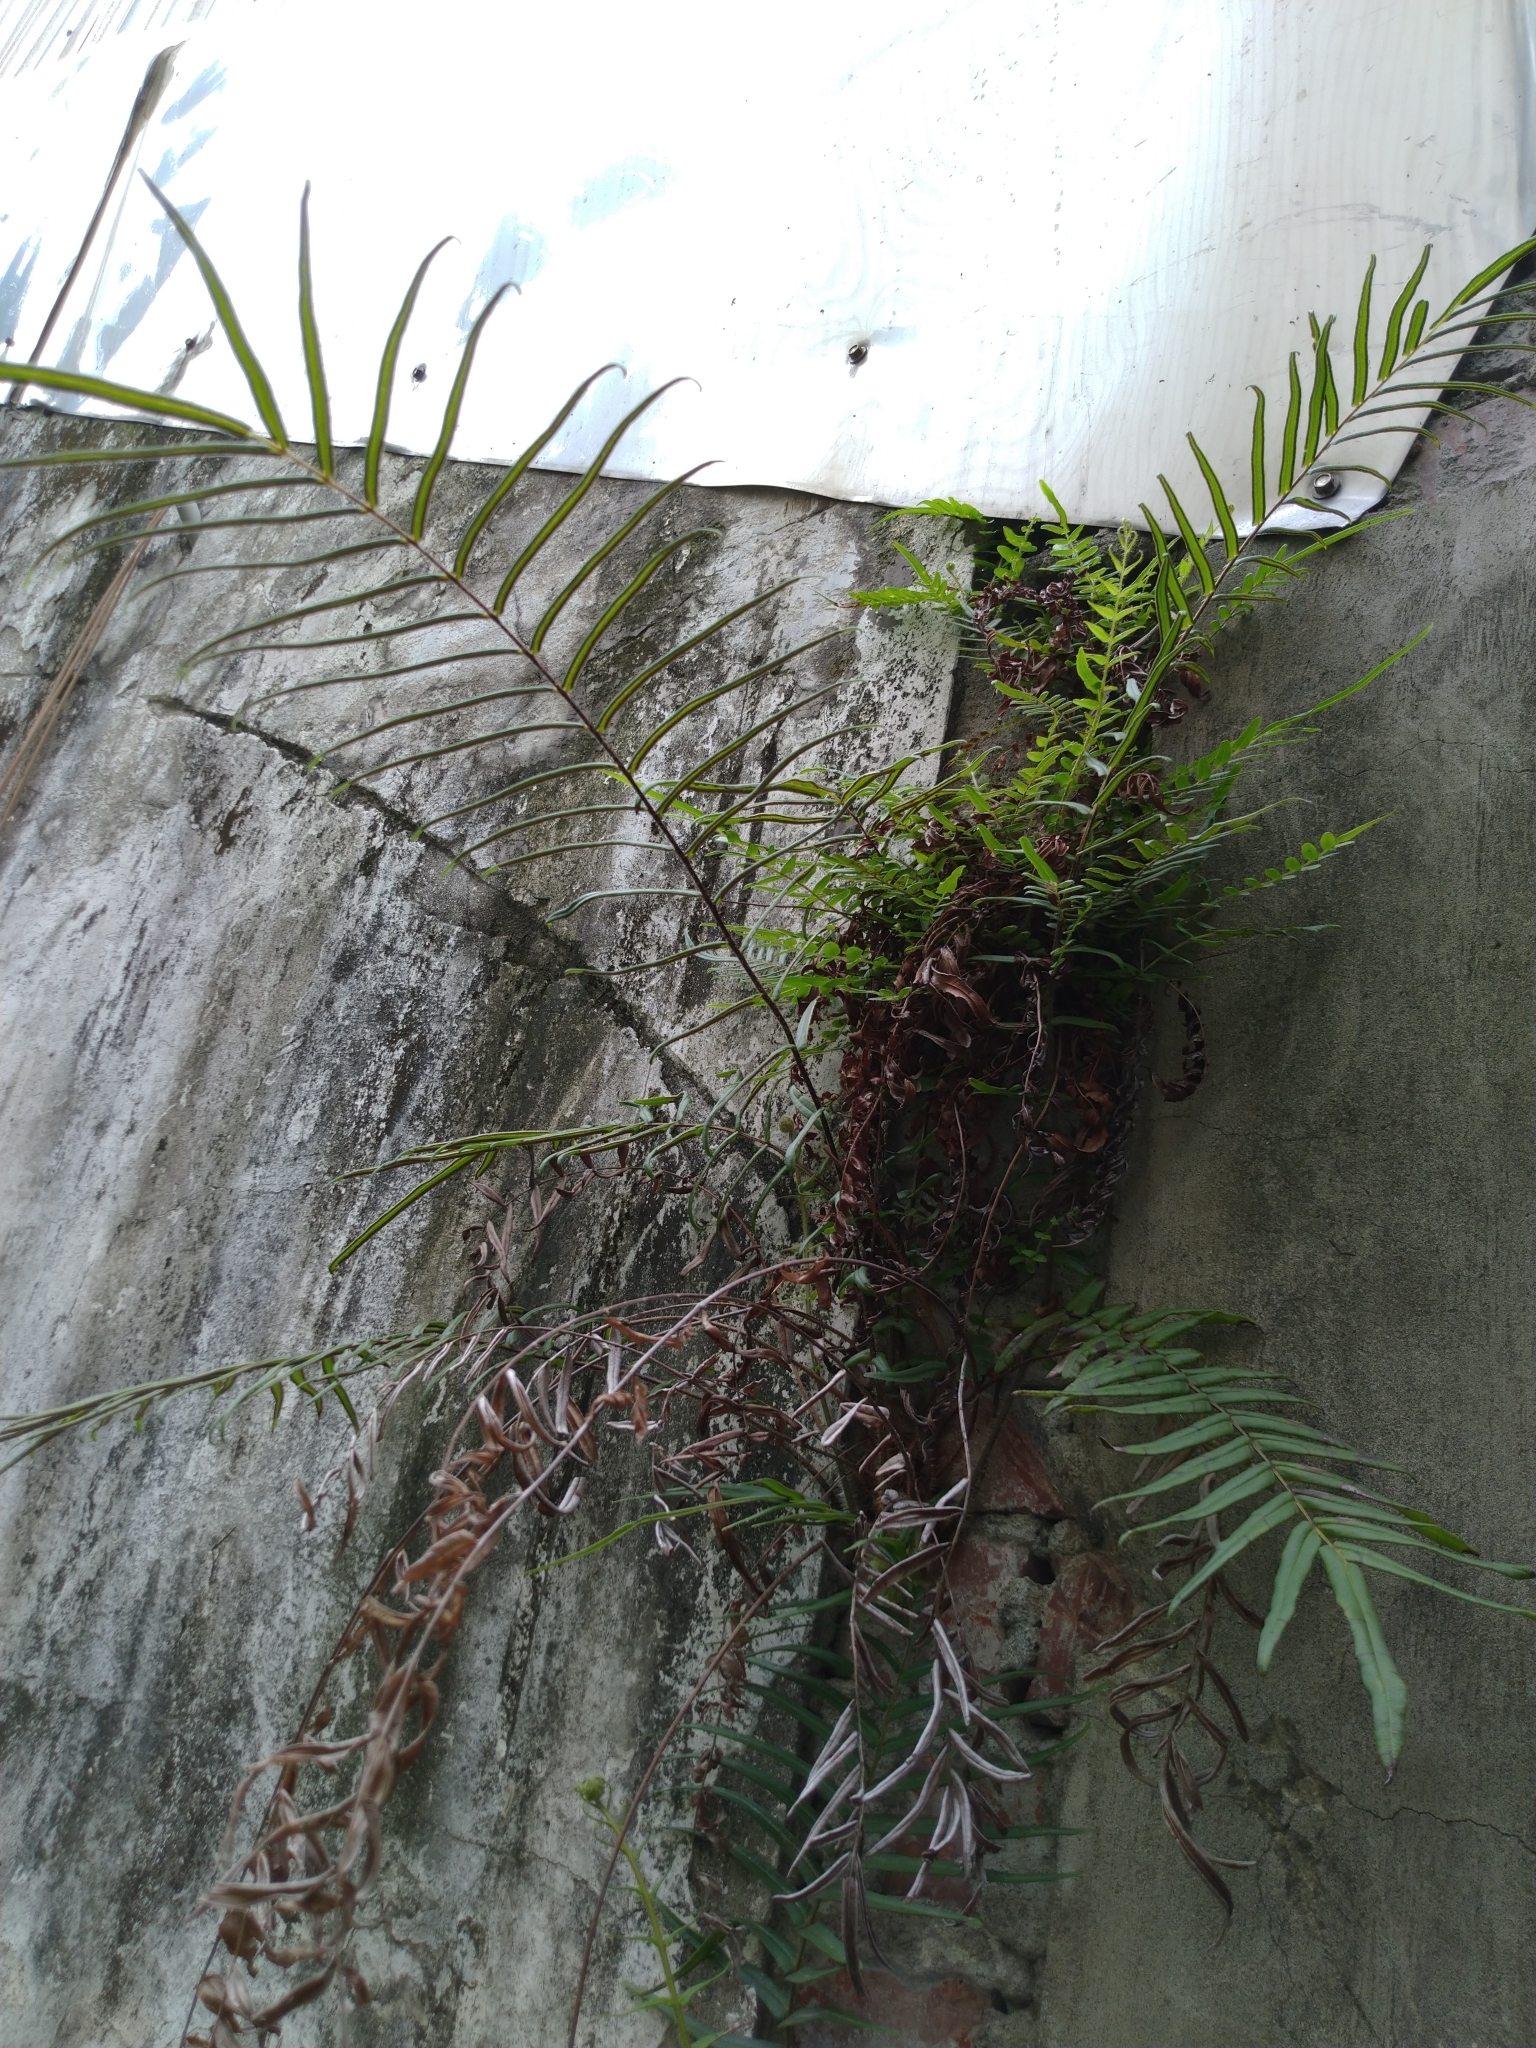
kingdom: Plantae
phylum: Tracheophyta
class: Polypodiopsida
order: Polypodiales
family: Pteridaceae
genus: Pteris
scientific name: Pteris vittata
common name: Ladder brake
